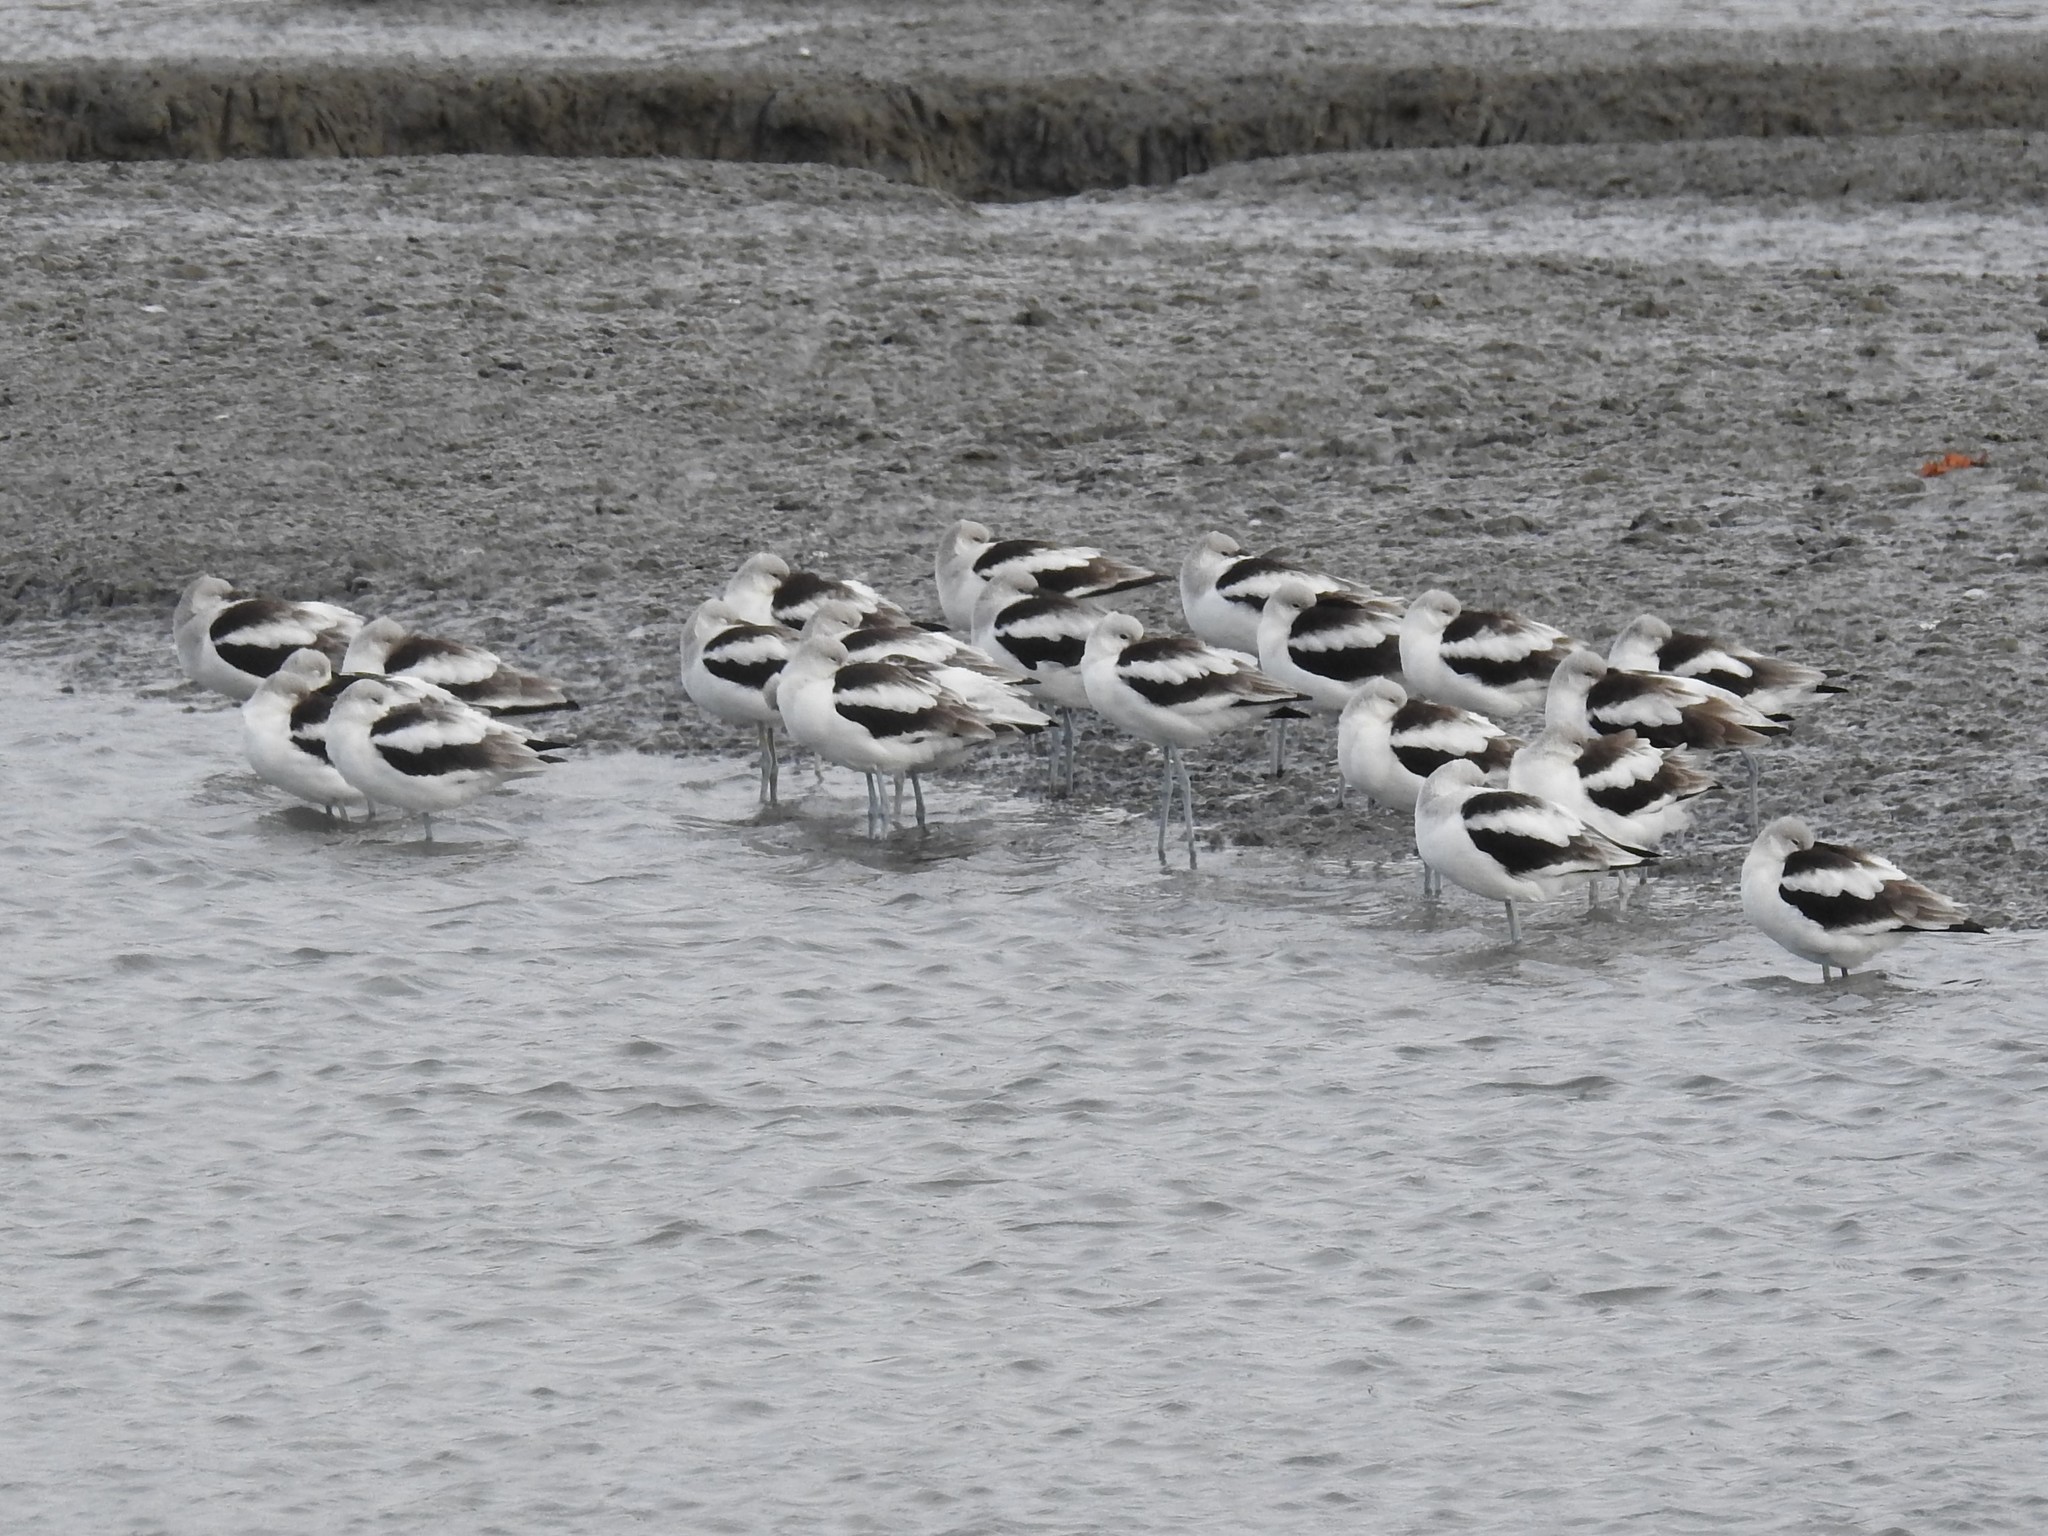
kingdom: Animalia
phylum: Chordata
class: Aves
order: Charadriiformes
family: Recurvirostridae
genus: Recurvirostra
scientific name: Recurvirostra americana
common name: American avocet
